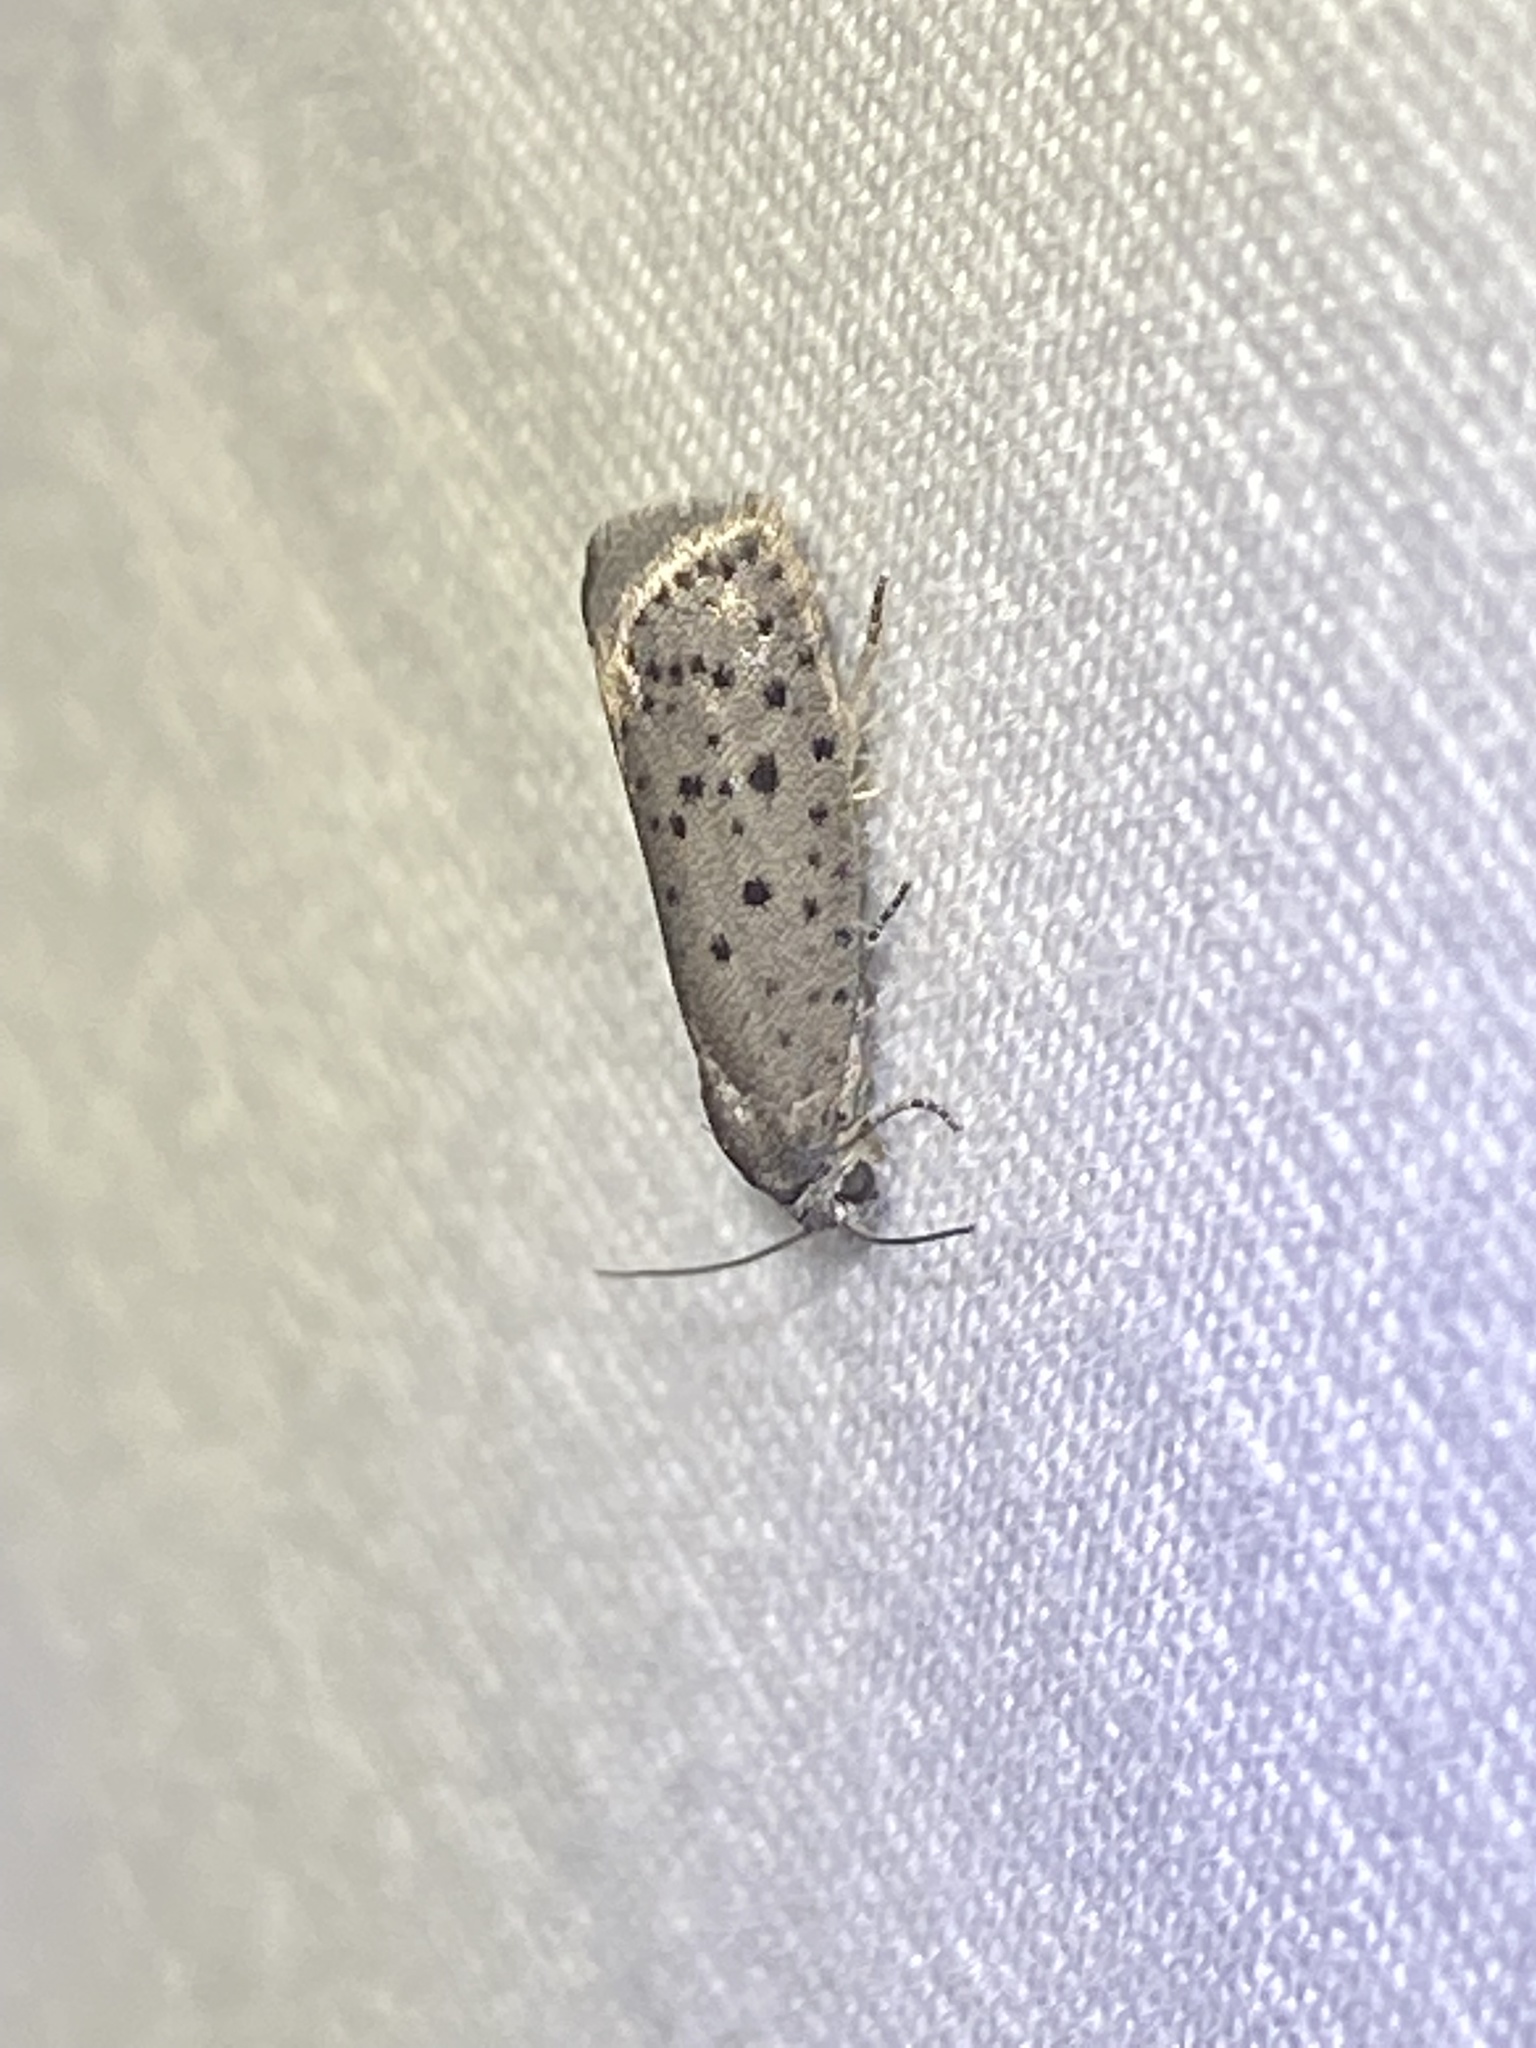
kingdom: Animalia
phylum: Arthropoda
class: Insecta
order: Lepidoptera
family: Galacticidae
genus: Homadaula
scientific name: Homadaula anisocentra
